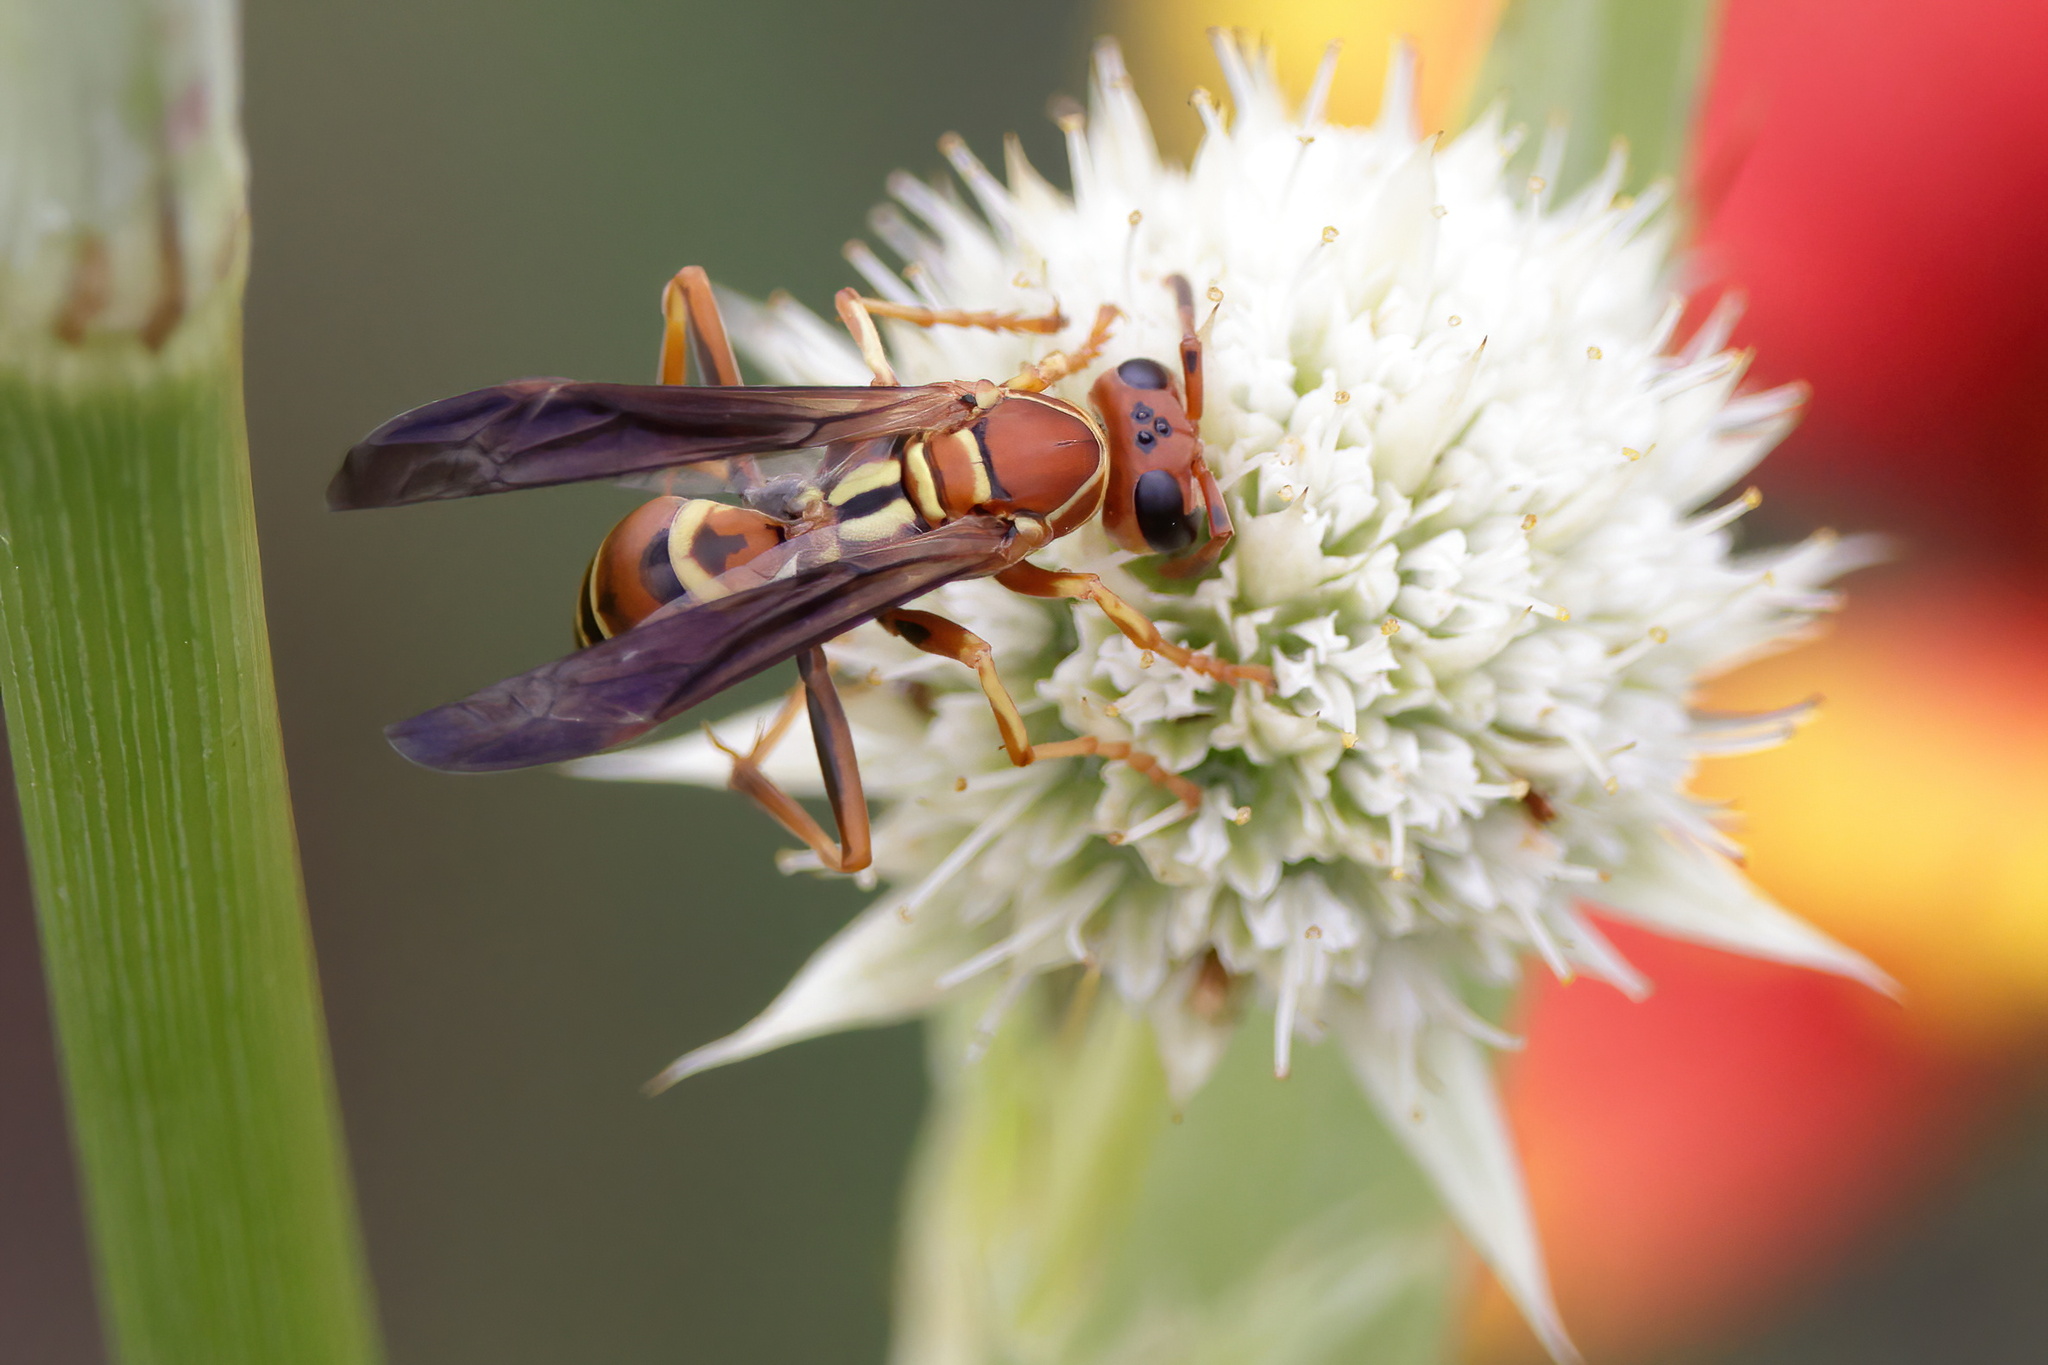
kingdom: Animalia
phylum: Arthropoda
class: Insecta
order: Hymenoptera
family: Eumenidae
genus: Polistes
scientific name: Polistes dorsalis
